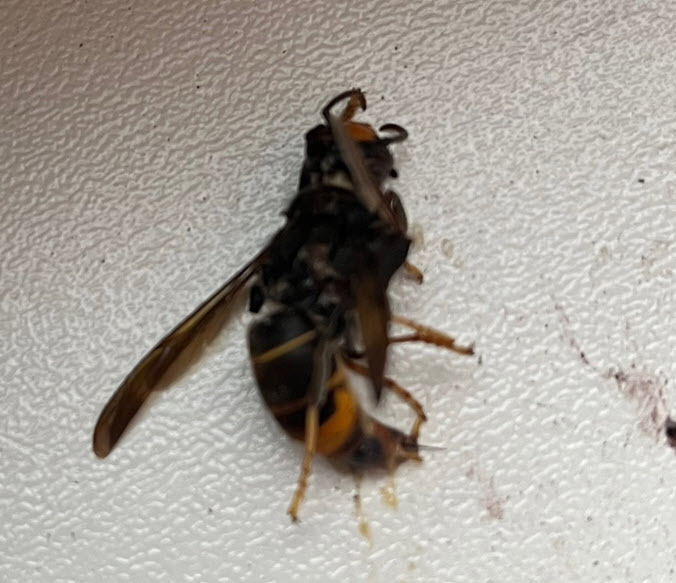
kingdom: Animalia
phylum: Arthropoda
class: Insecta
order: Hymenoptera
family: Vespidae
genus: Vespa
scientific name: Vespa velutina
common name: Asian hornet
